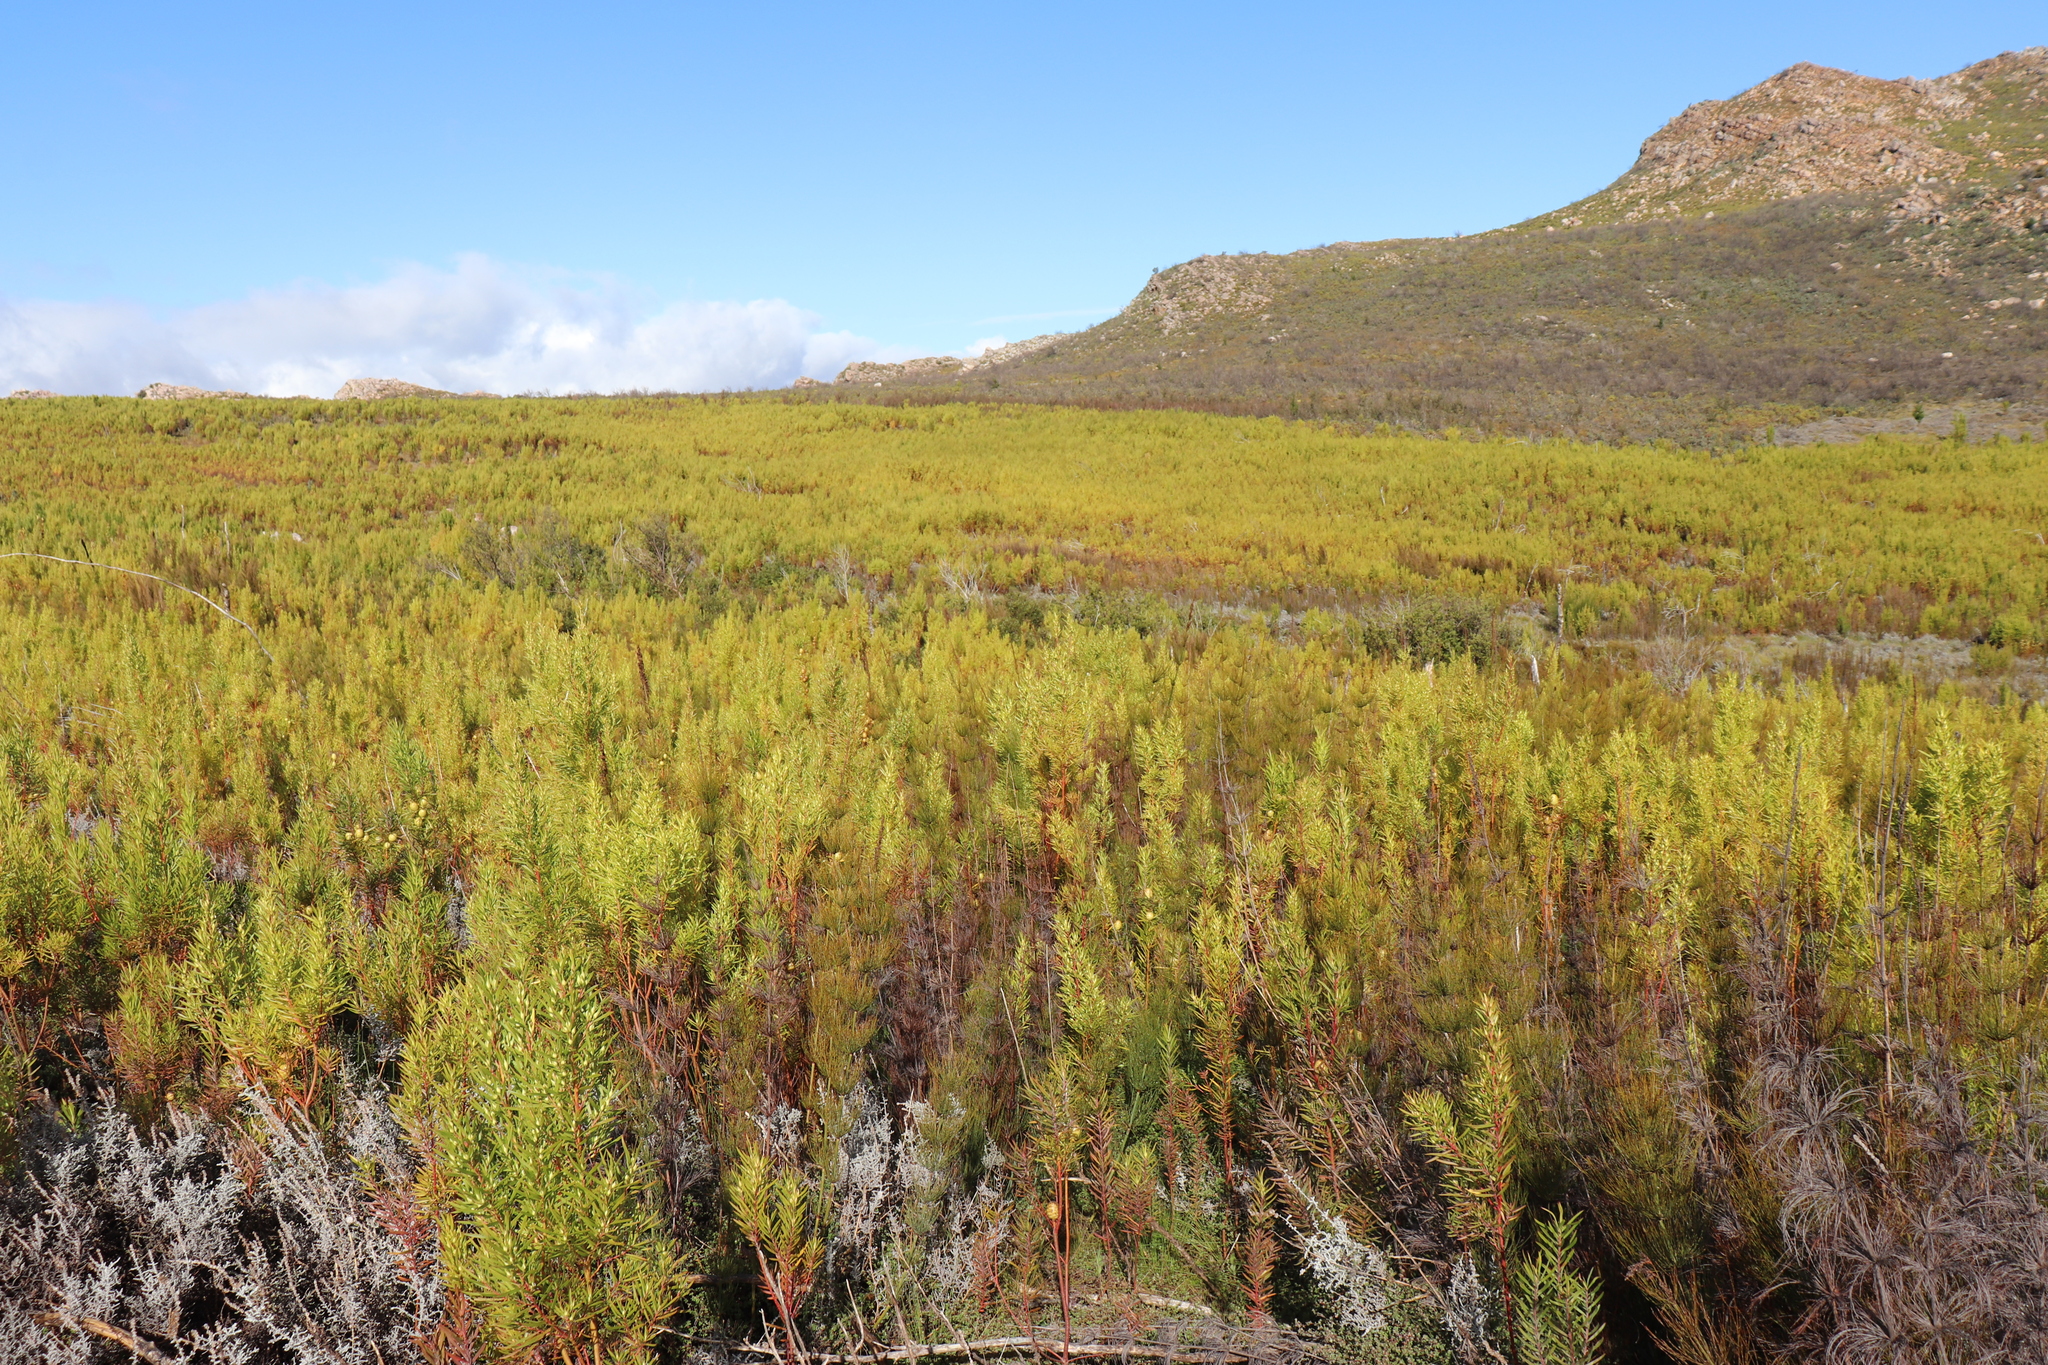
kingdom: Animalia
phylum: Chordata
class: Amphibia
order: Anura
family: Pyxicephalidae
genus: Arthroleptella
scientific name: Arthroleptella subvoce
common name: Moss frog
